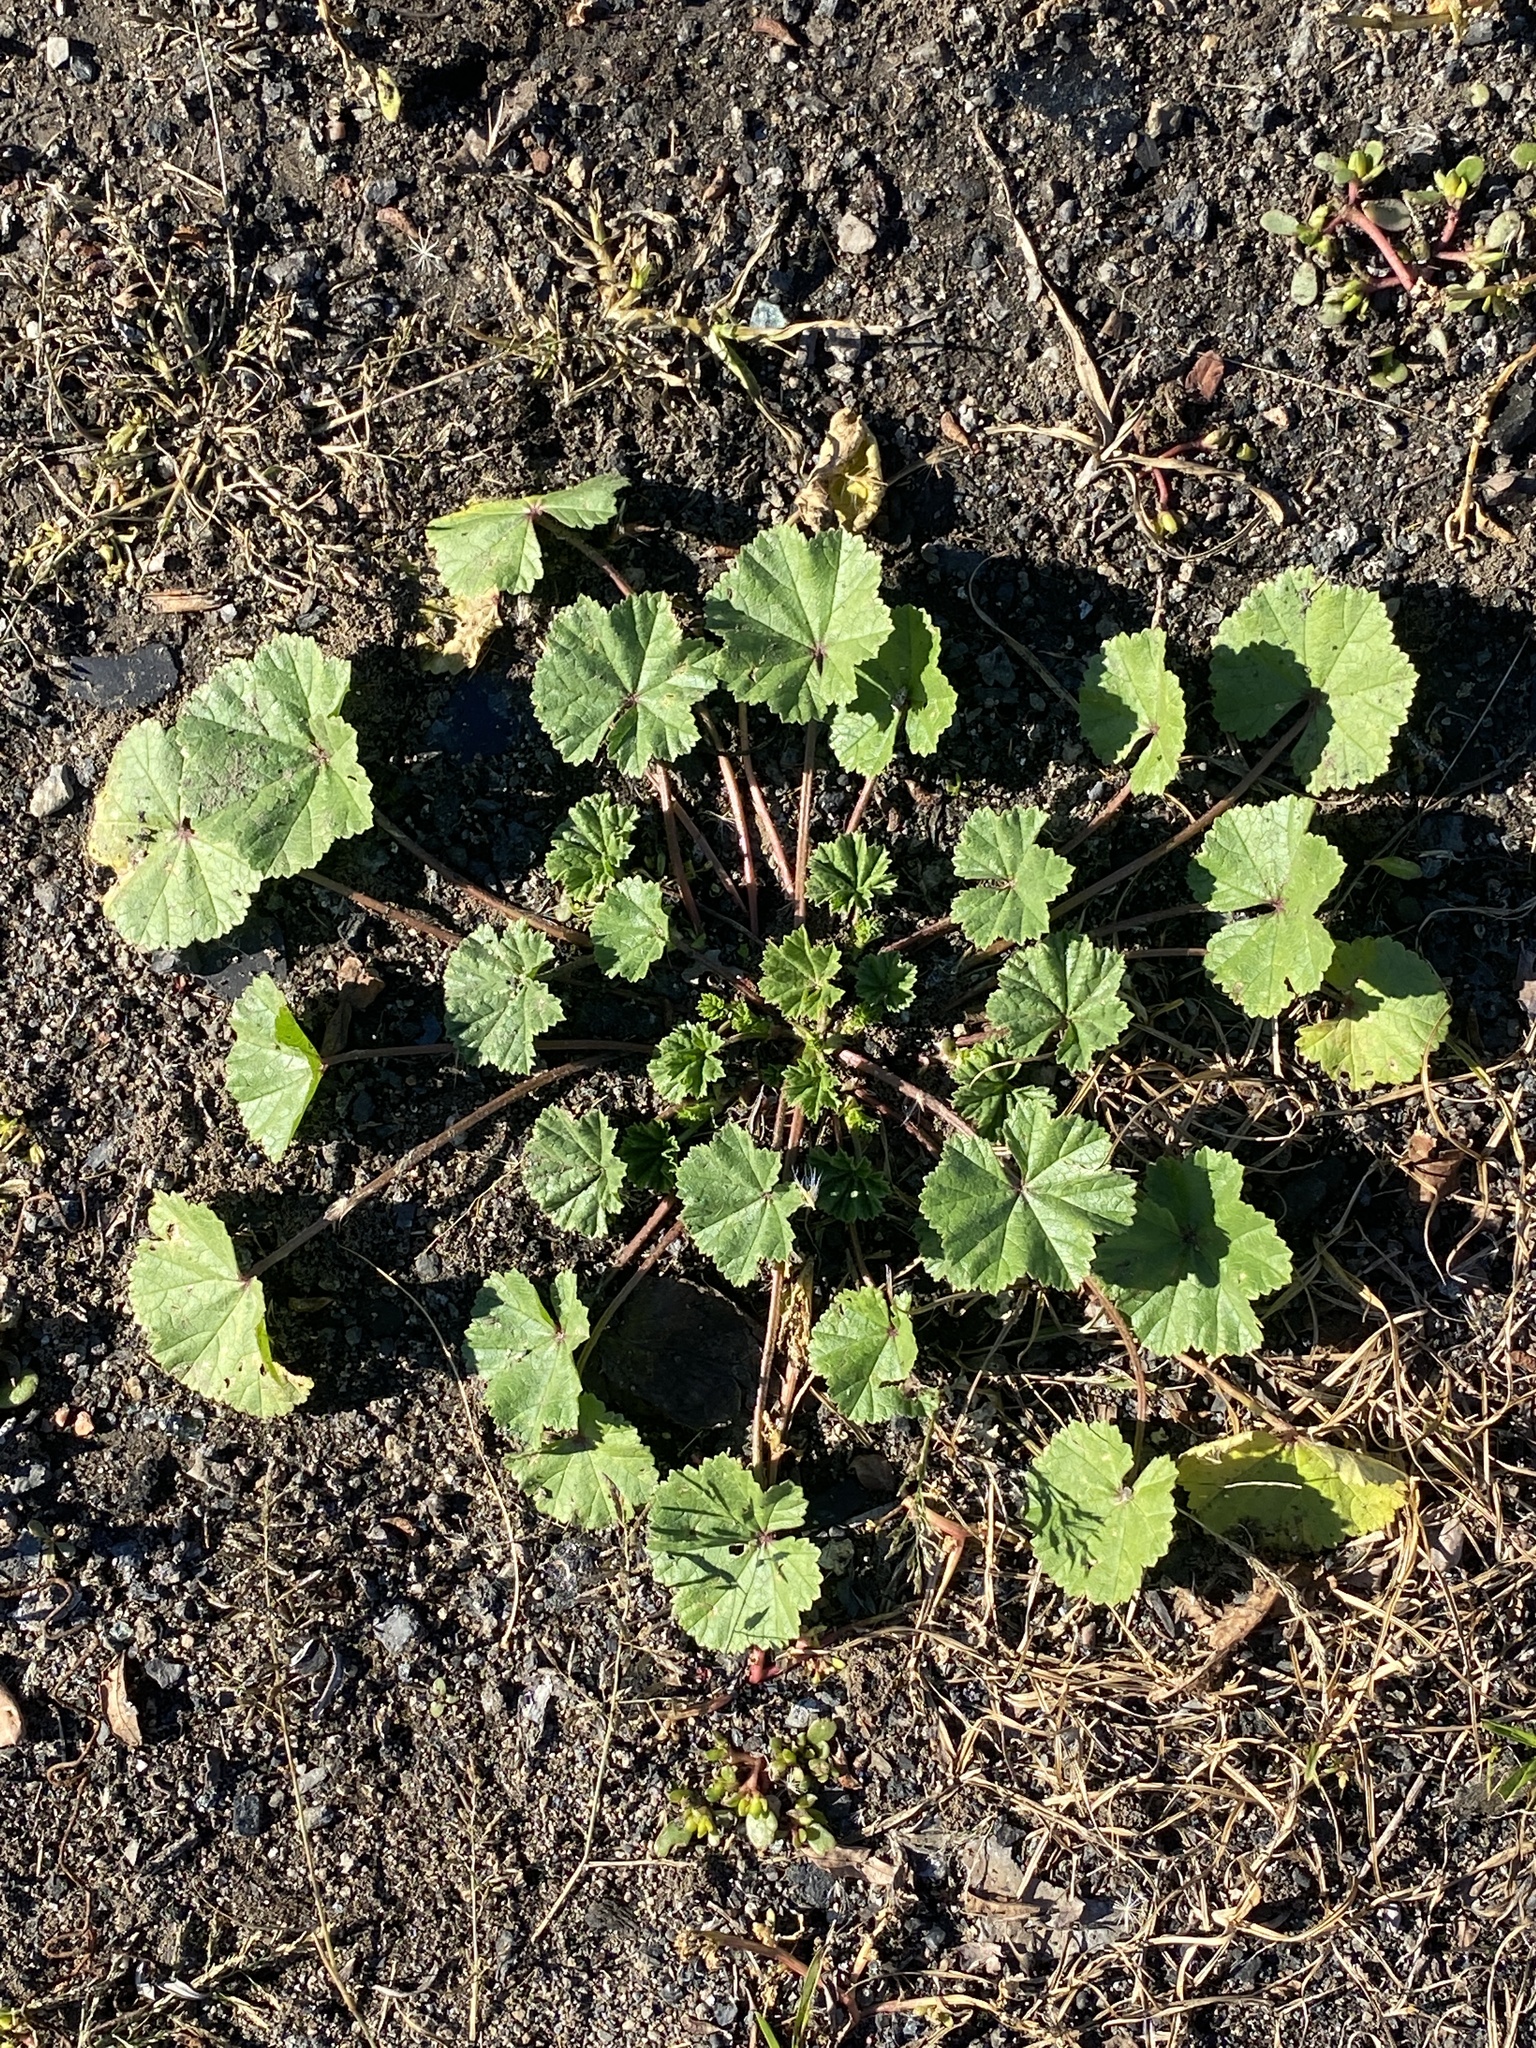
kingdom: Plantae
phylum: Tracheophyta
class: Magnoliopsida
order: Malvales
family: Malvaceae
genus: Malva
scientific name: Malva neglecta
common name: Common mallow
